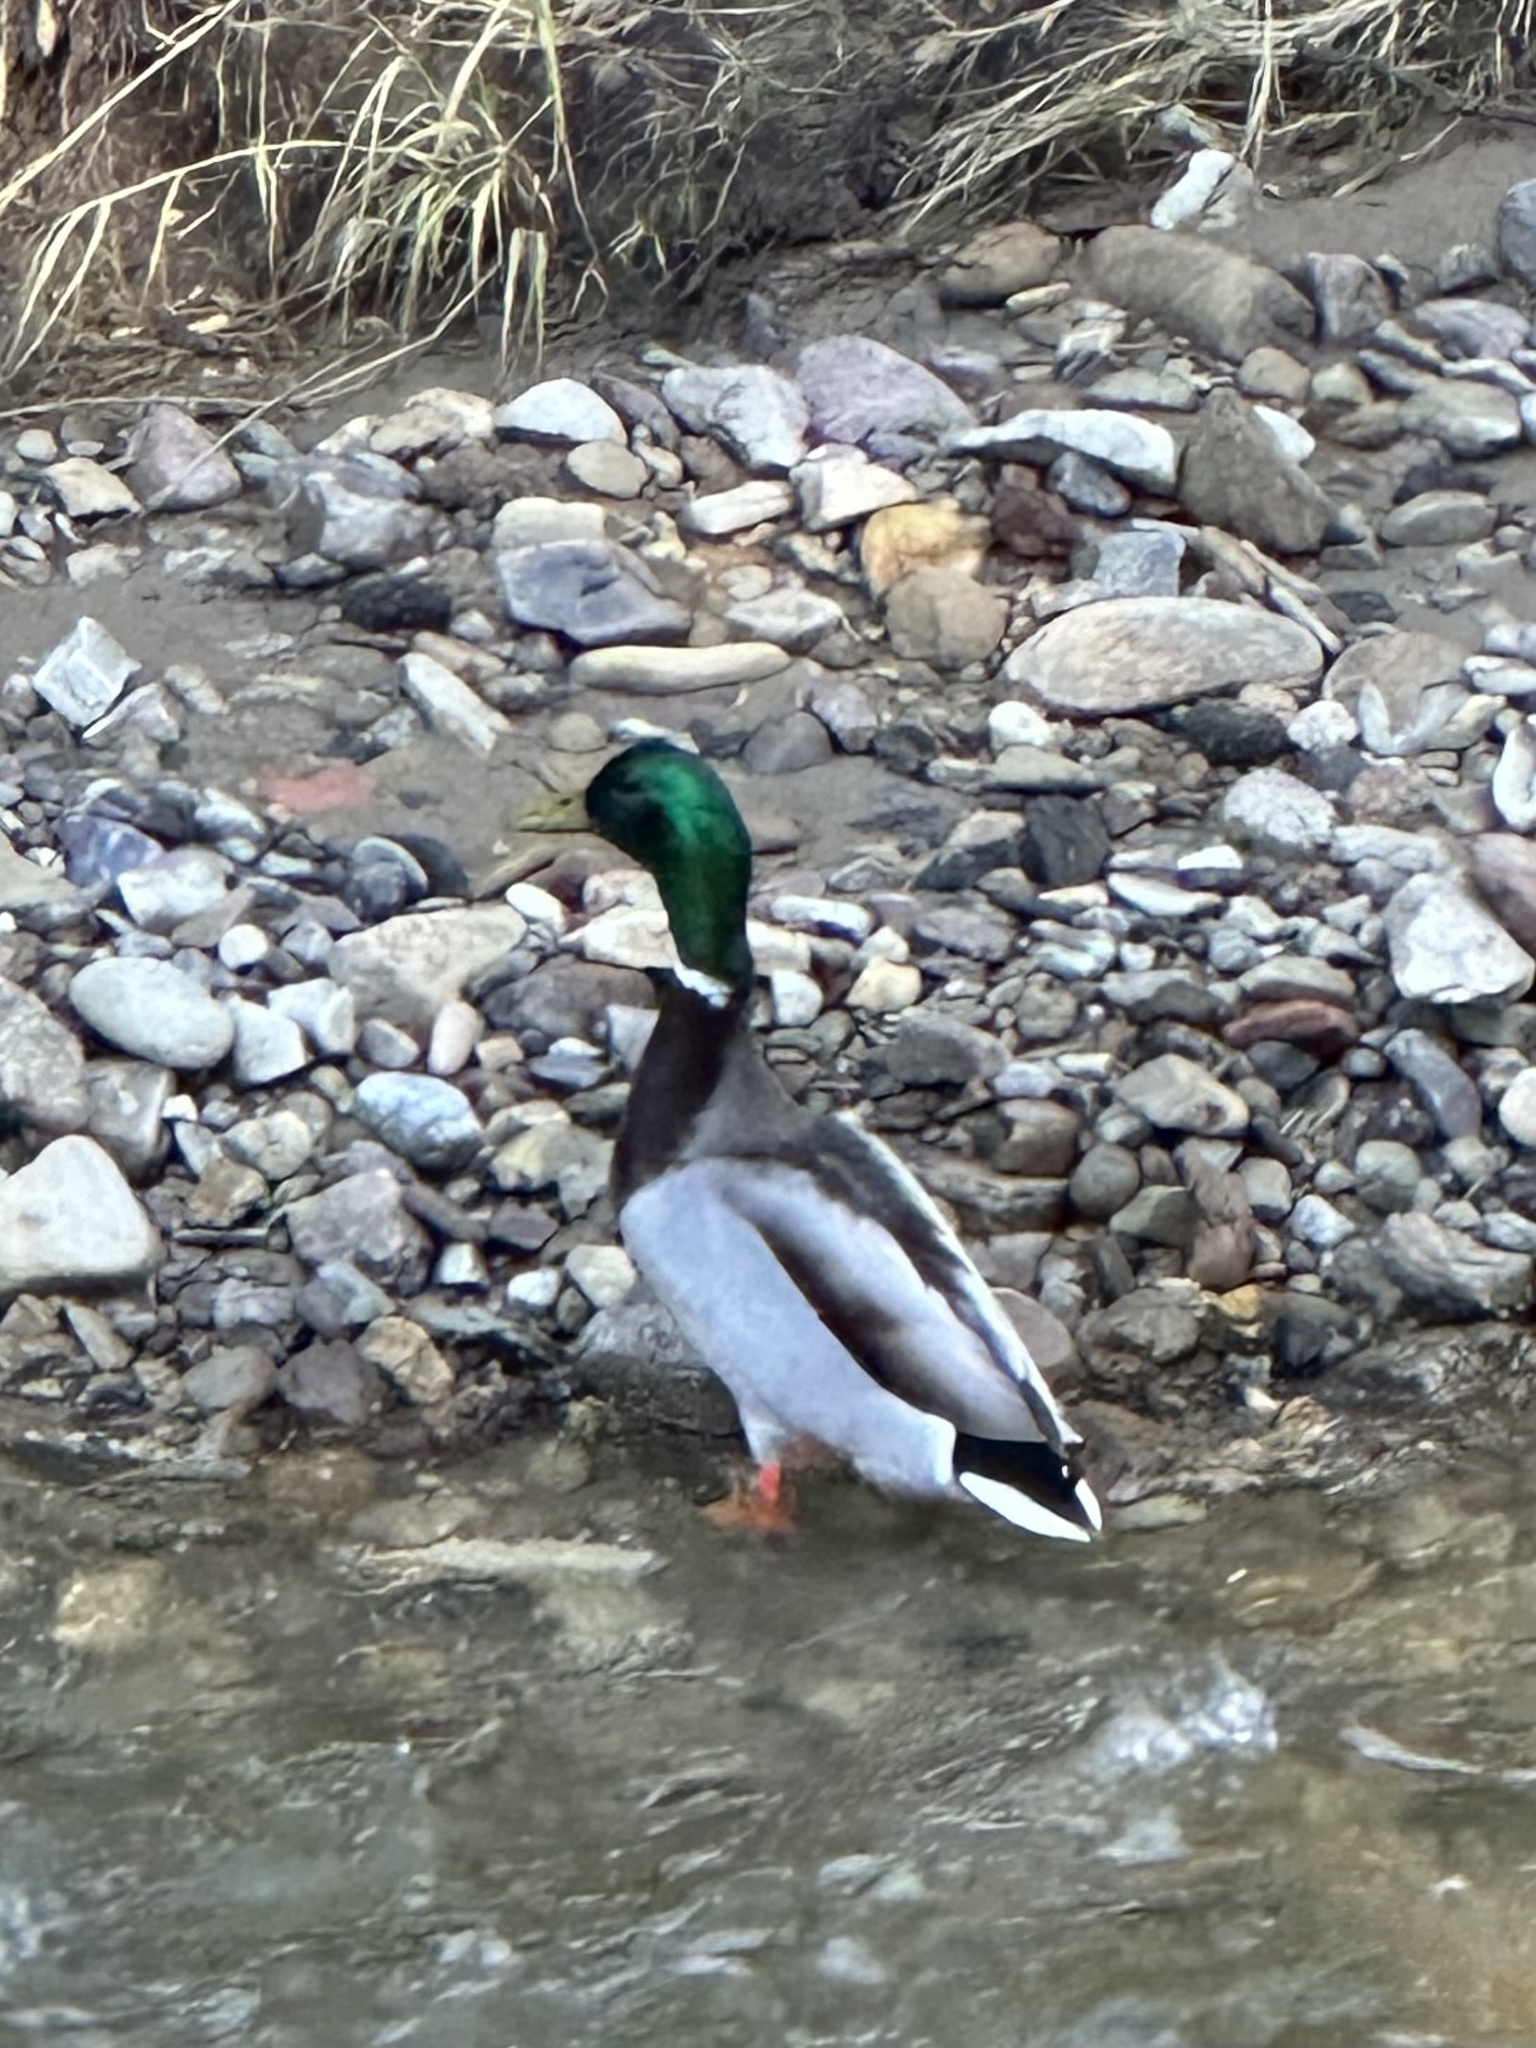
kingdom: Animalia
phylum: Chordata
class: Aves
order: Anseriformes
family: Anatidae
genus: Anas
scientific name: Anas platyrhynchos
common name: Mallard
